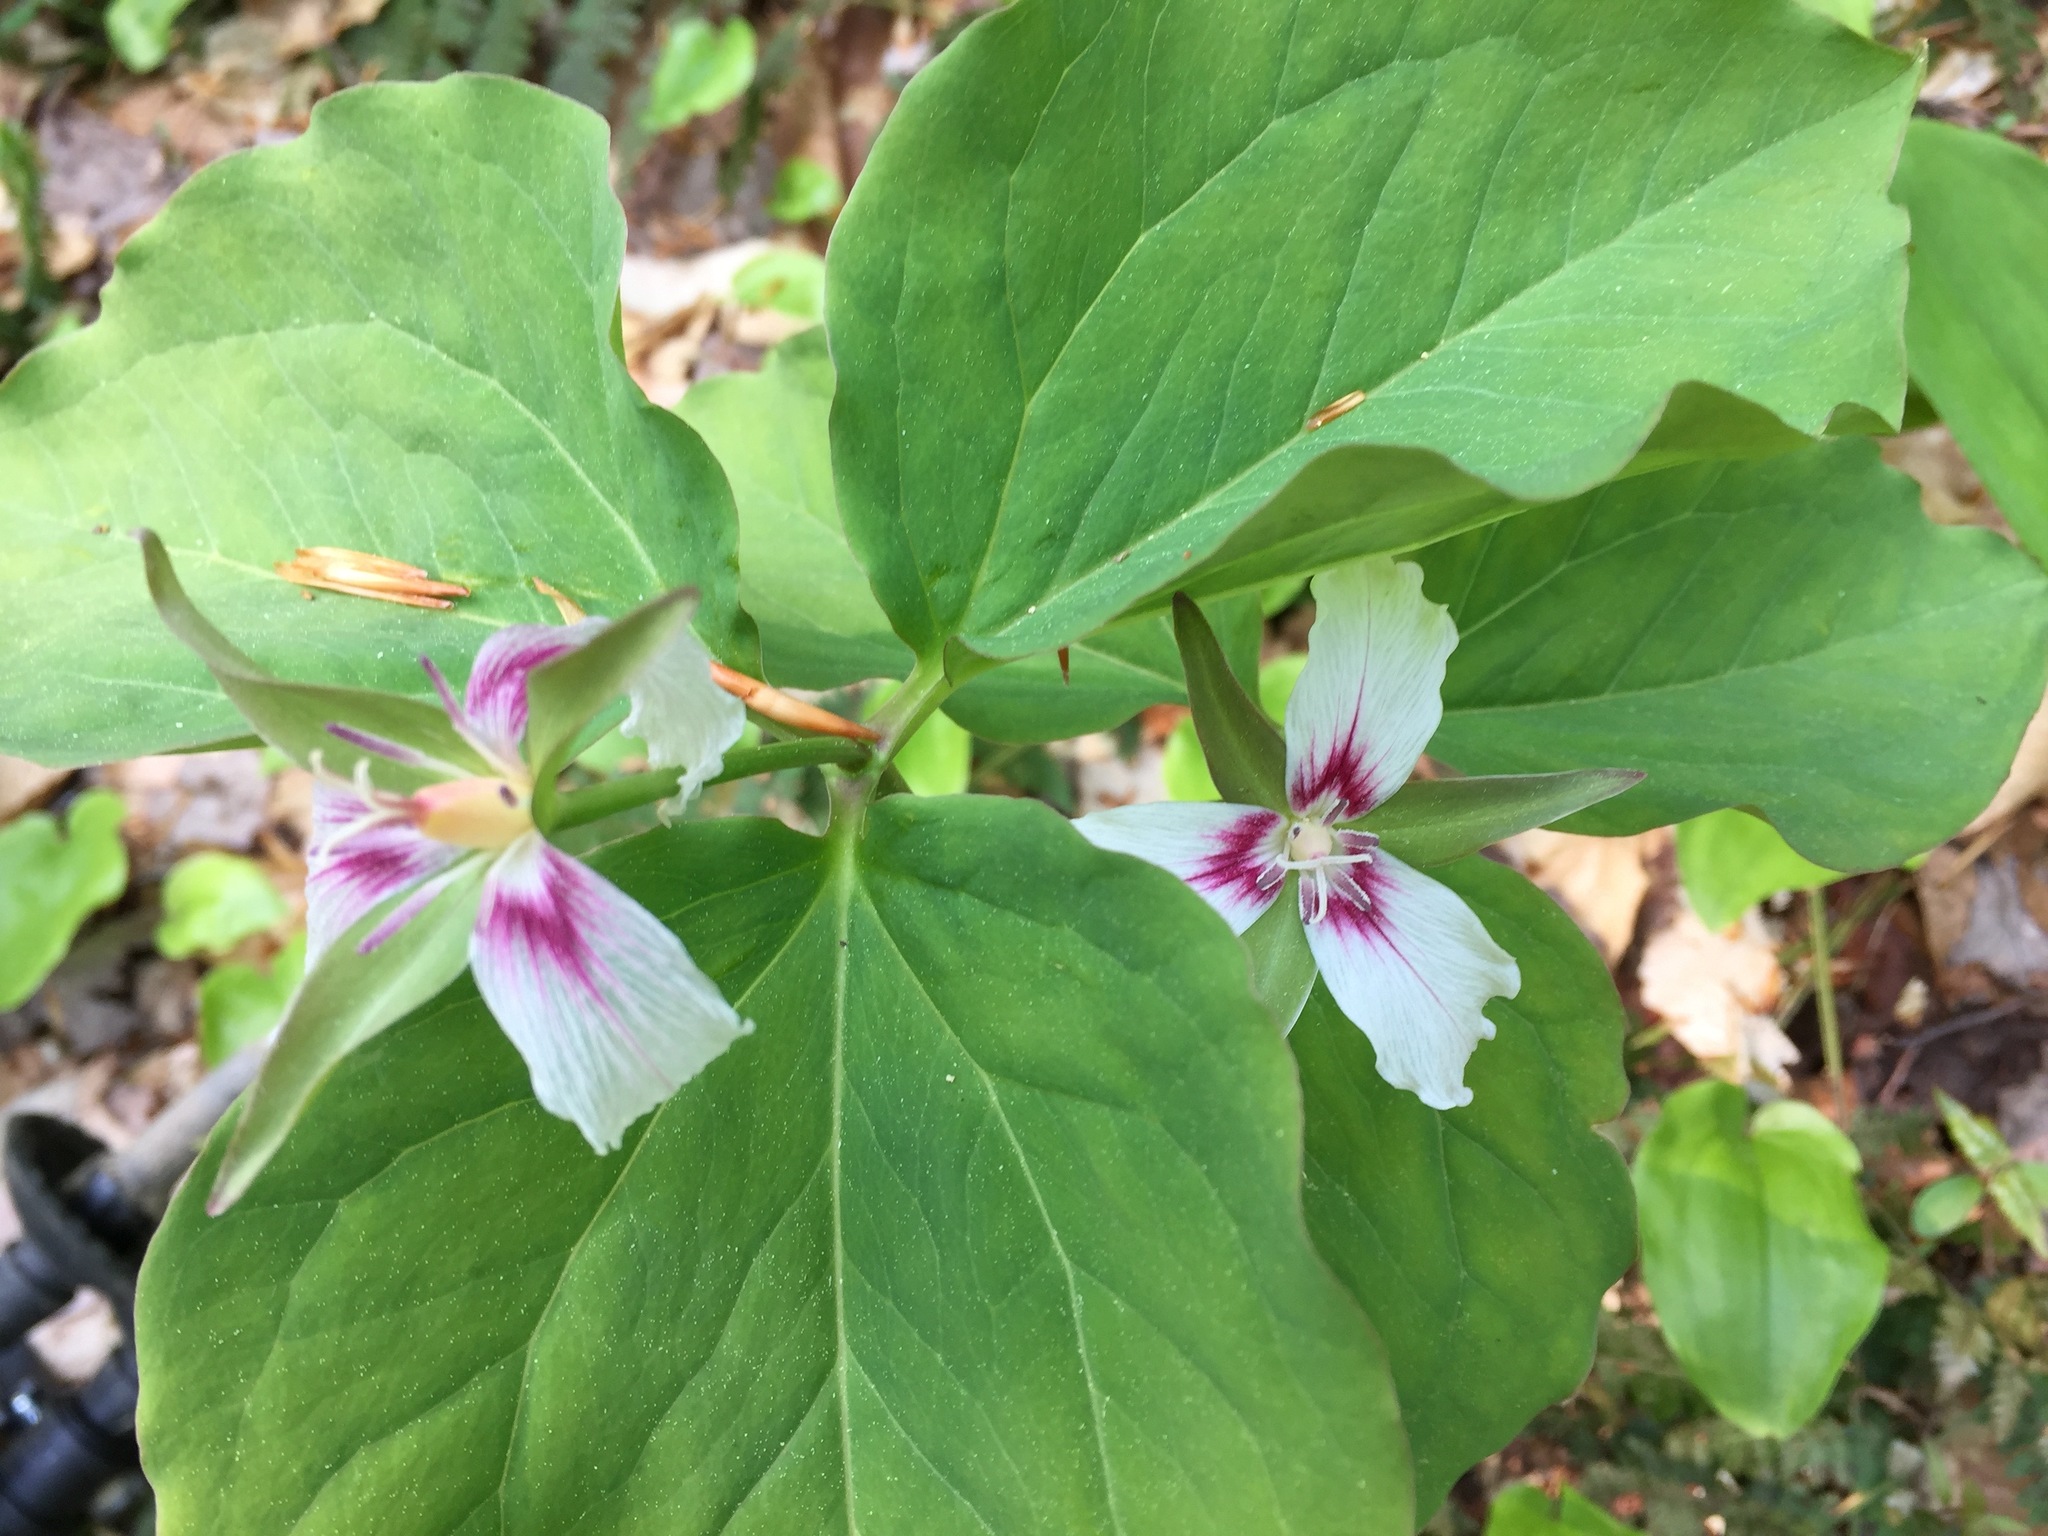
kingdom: Plantae
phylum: Tracheophyta
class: Liliopsida
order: Liliales
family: Melanthiaceae
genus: Trillium
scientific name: Trillium undulatum
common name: Paint trillium
